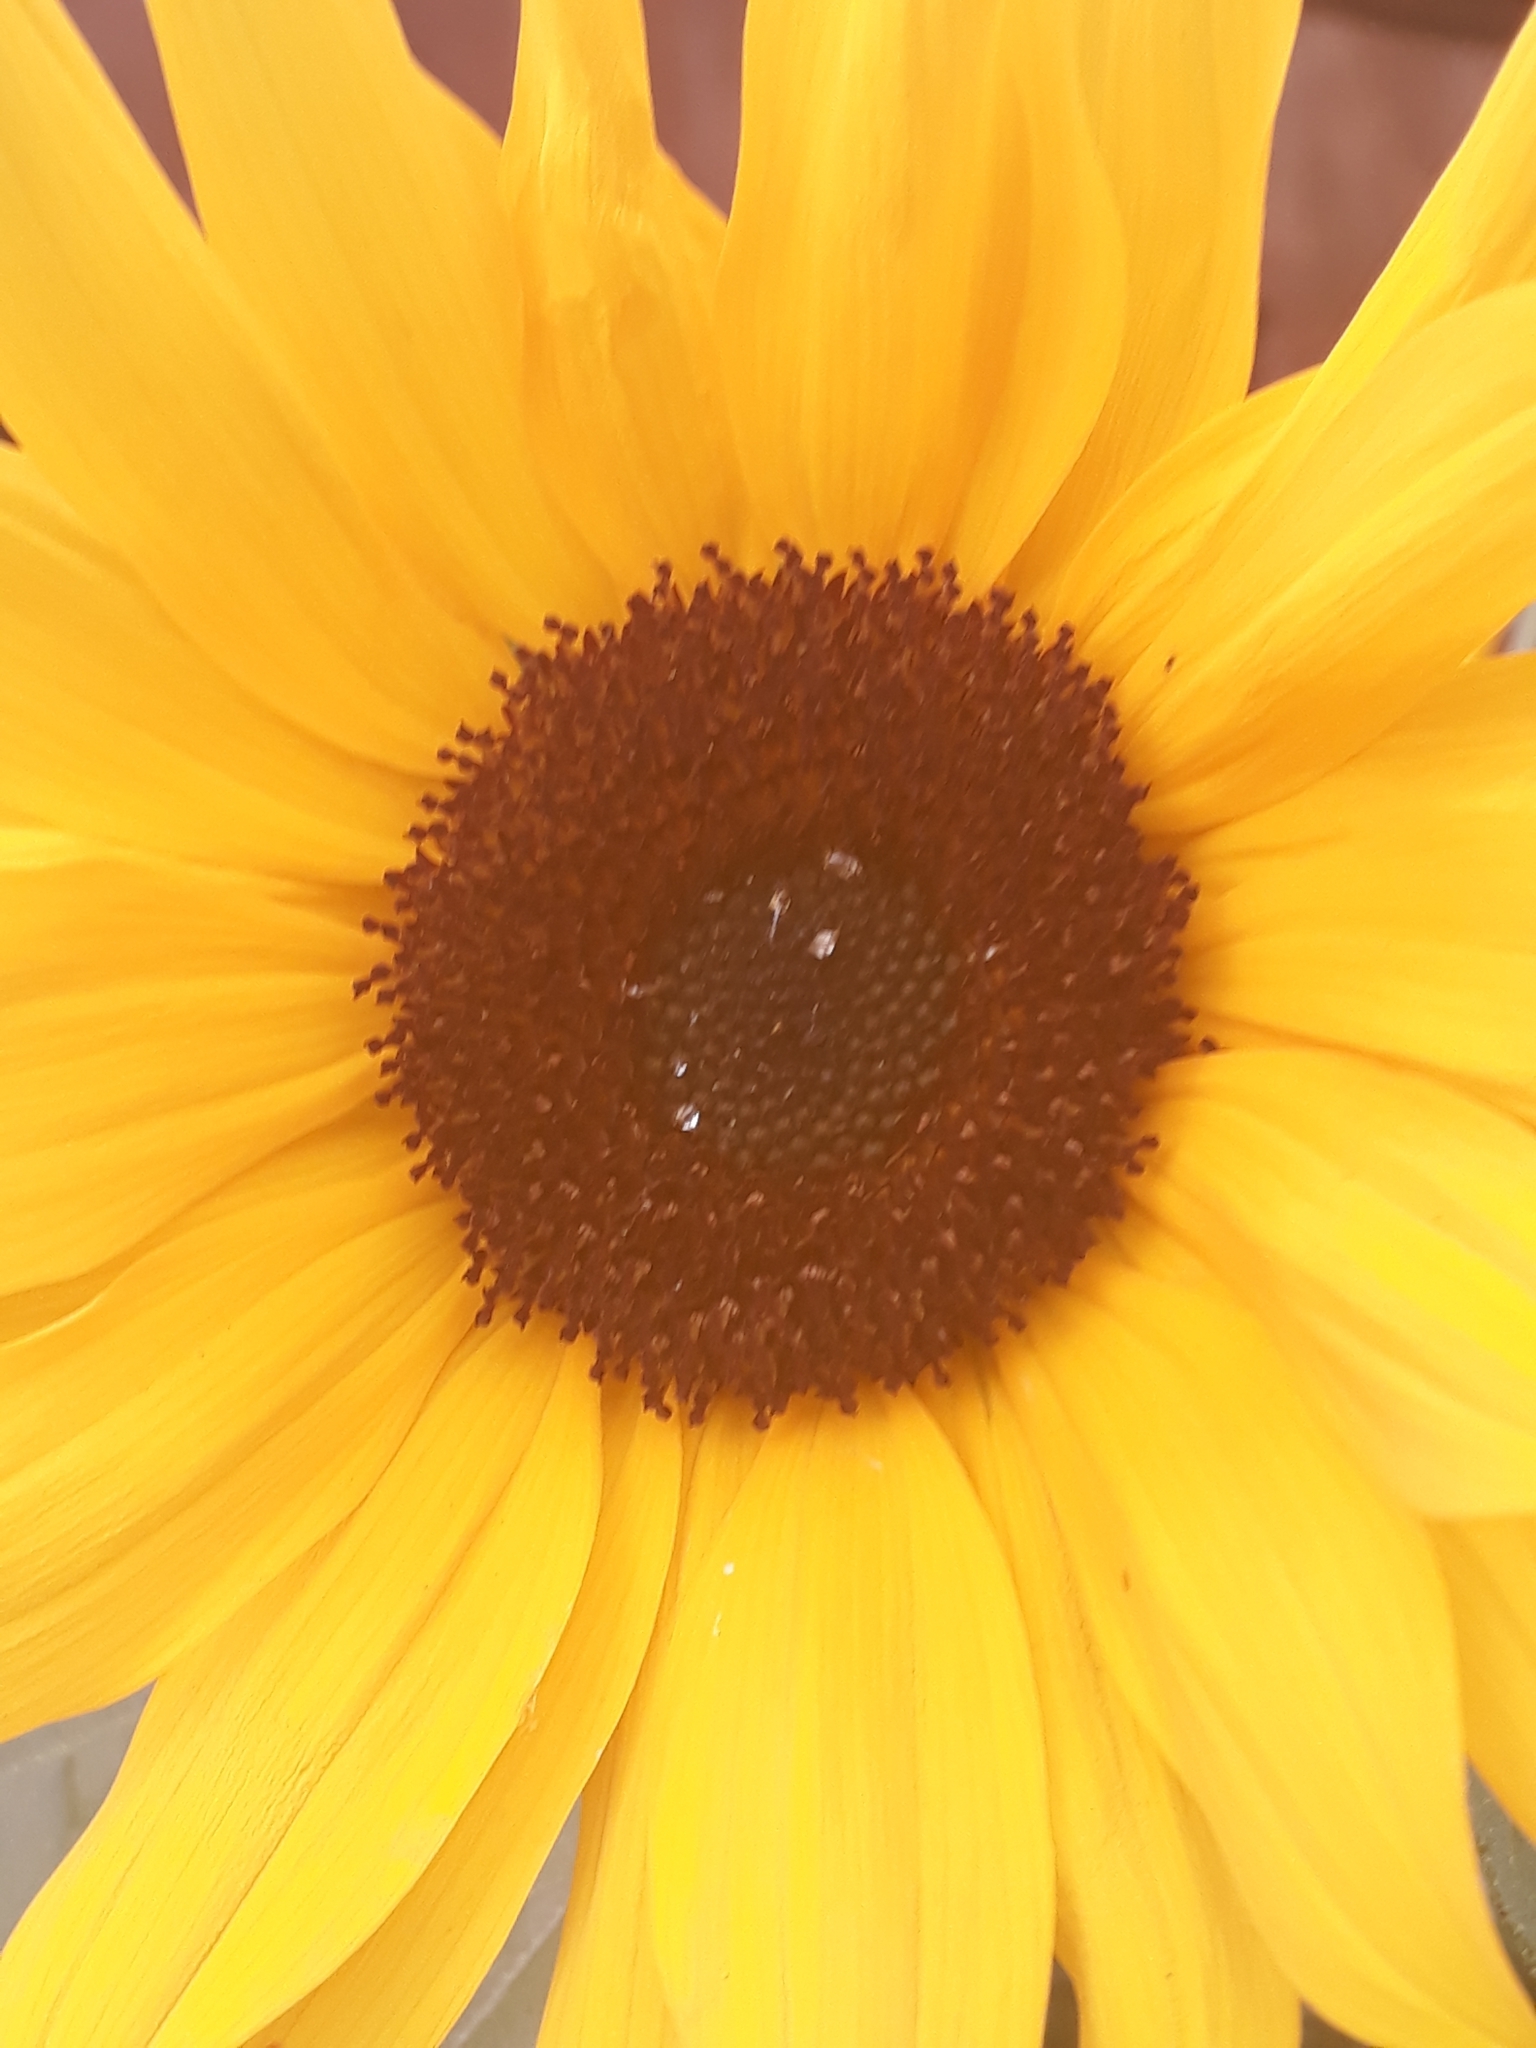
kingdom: Plantae
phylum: Tracheophyta
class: Magnoliopsida
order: Asterales
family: Asteraceae
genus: Helianthus
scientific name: Helianthus annuus
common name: Sunflower
